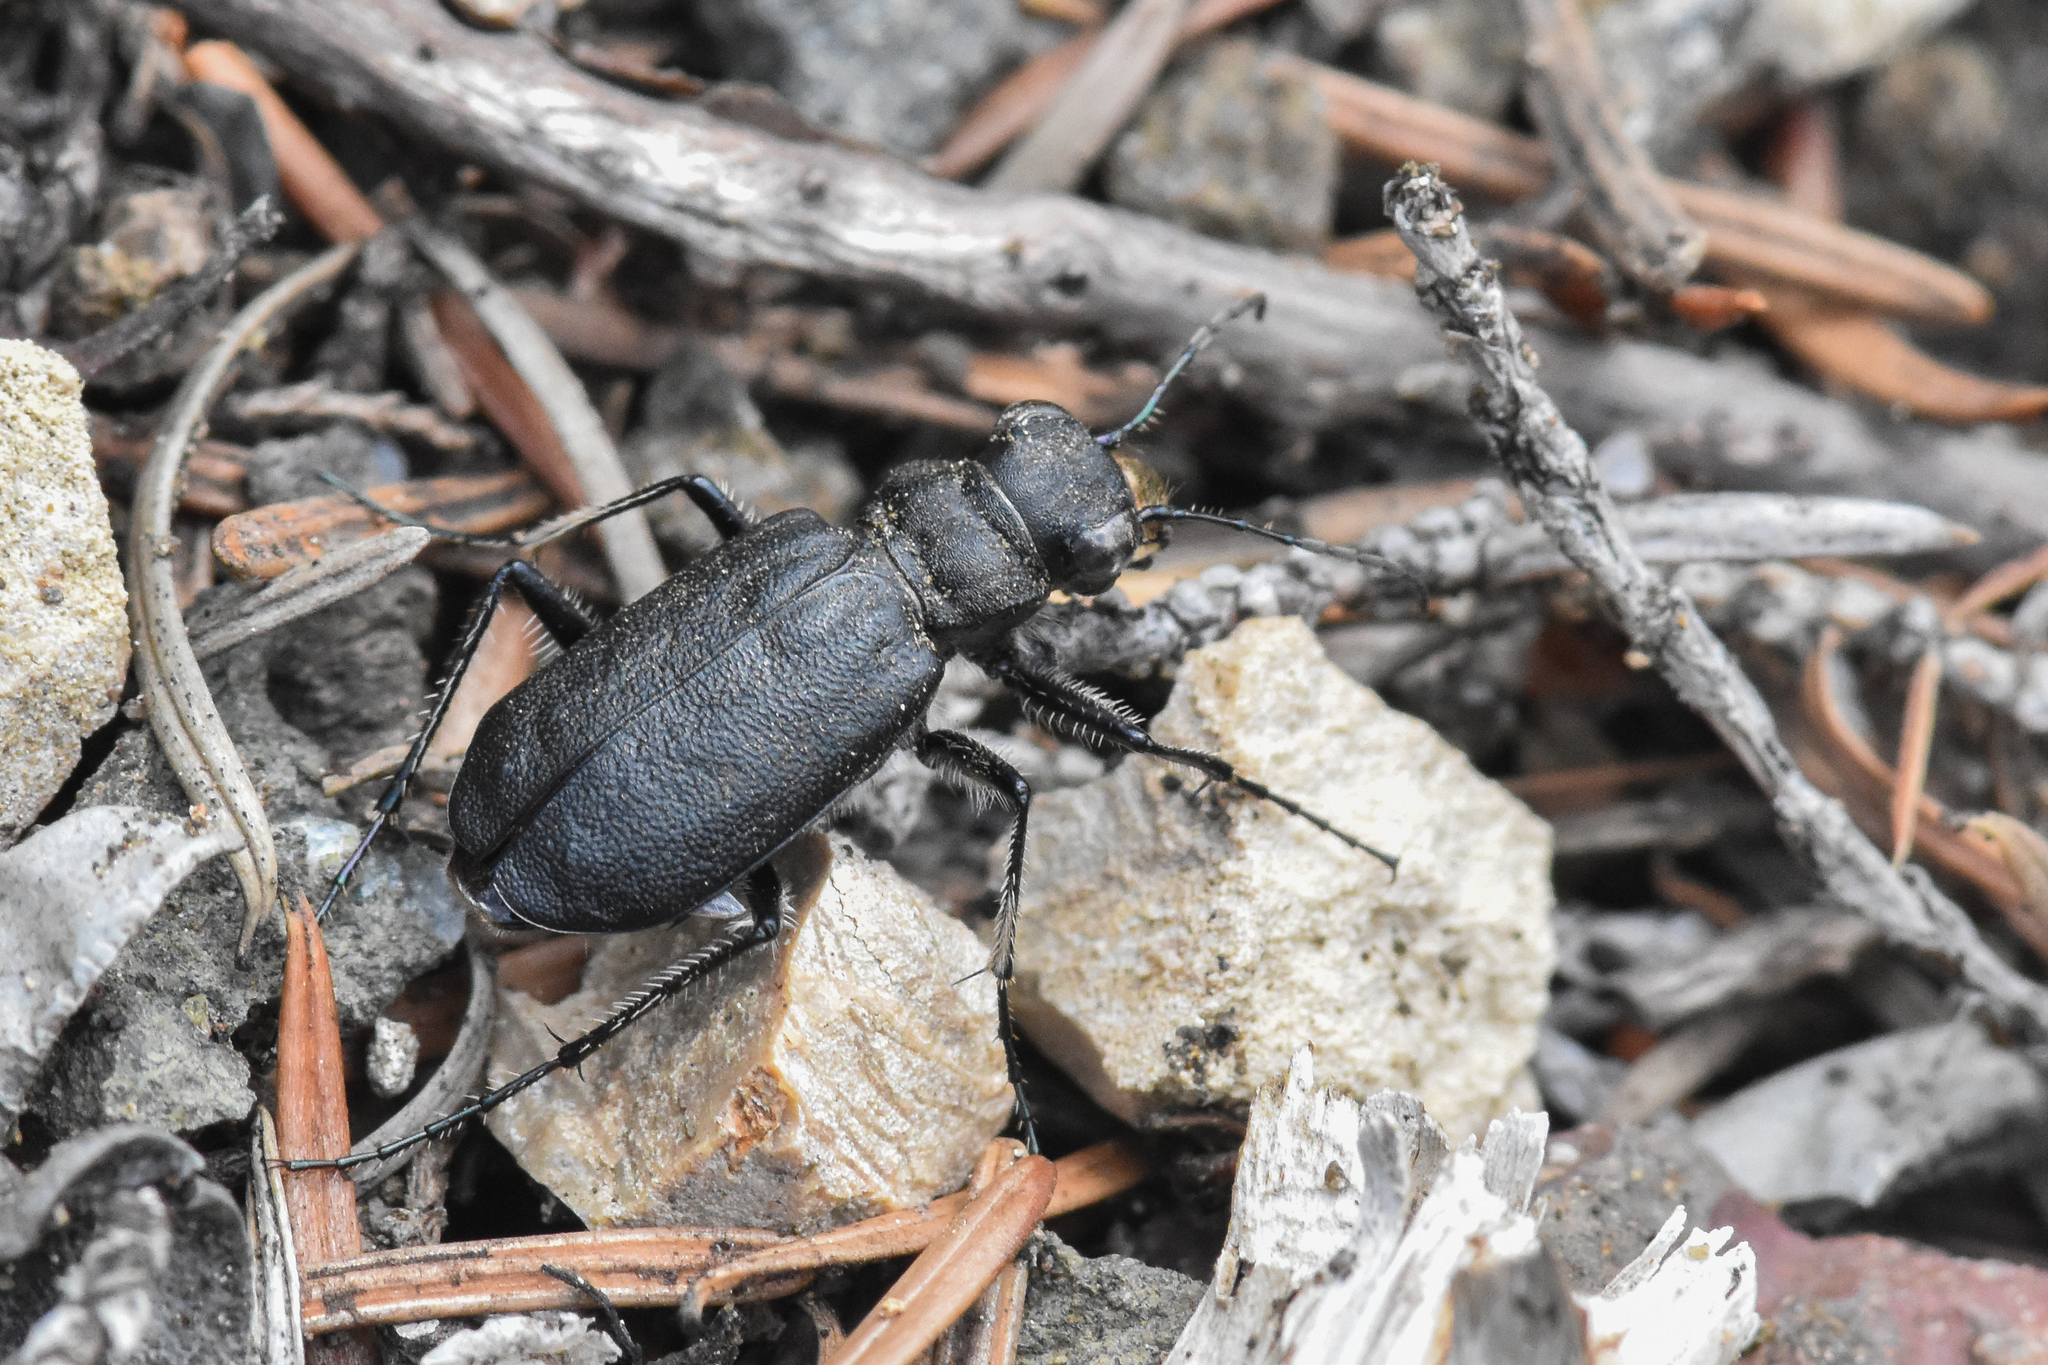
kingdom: Animalia
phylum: Arthropoda
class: Insecta
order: Coleoptera
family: Carabidae
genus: Cicindela
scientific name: Cicindela longilabris
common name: Boreal long-lipped tiger beetle
